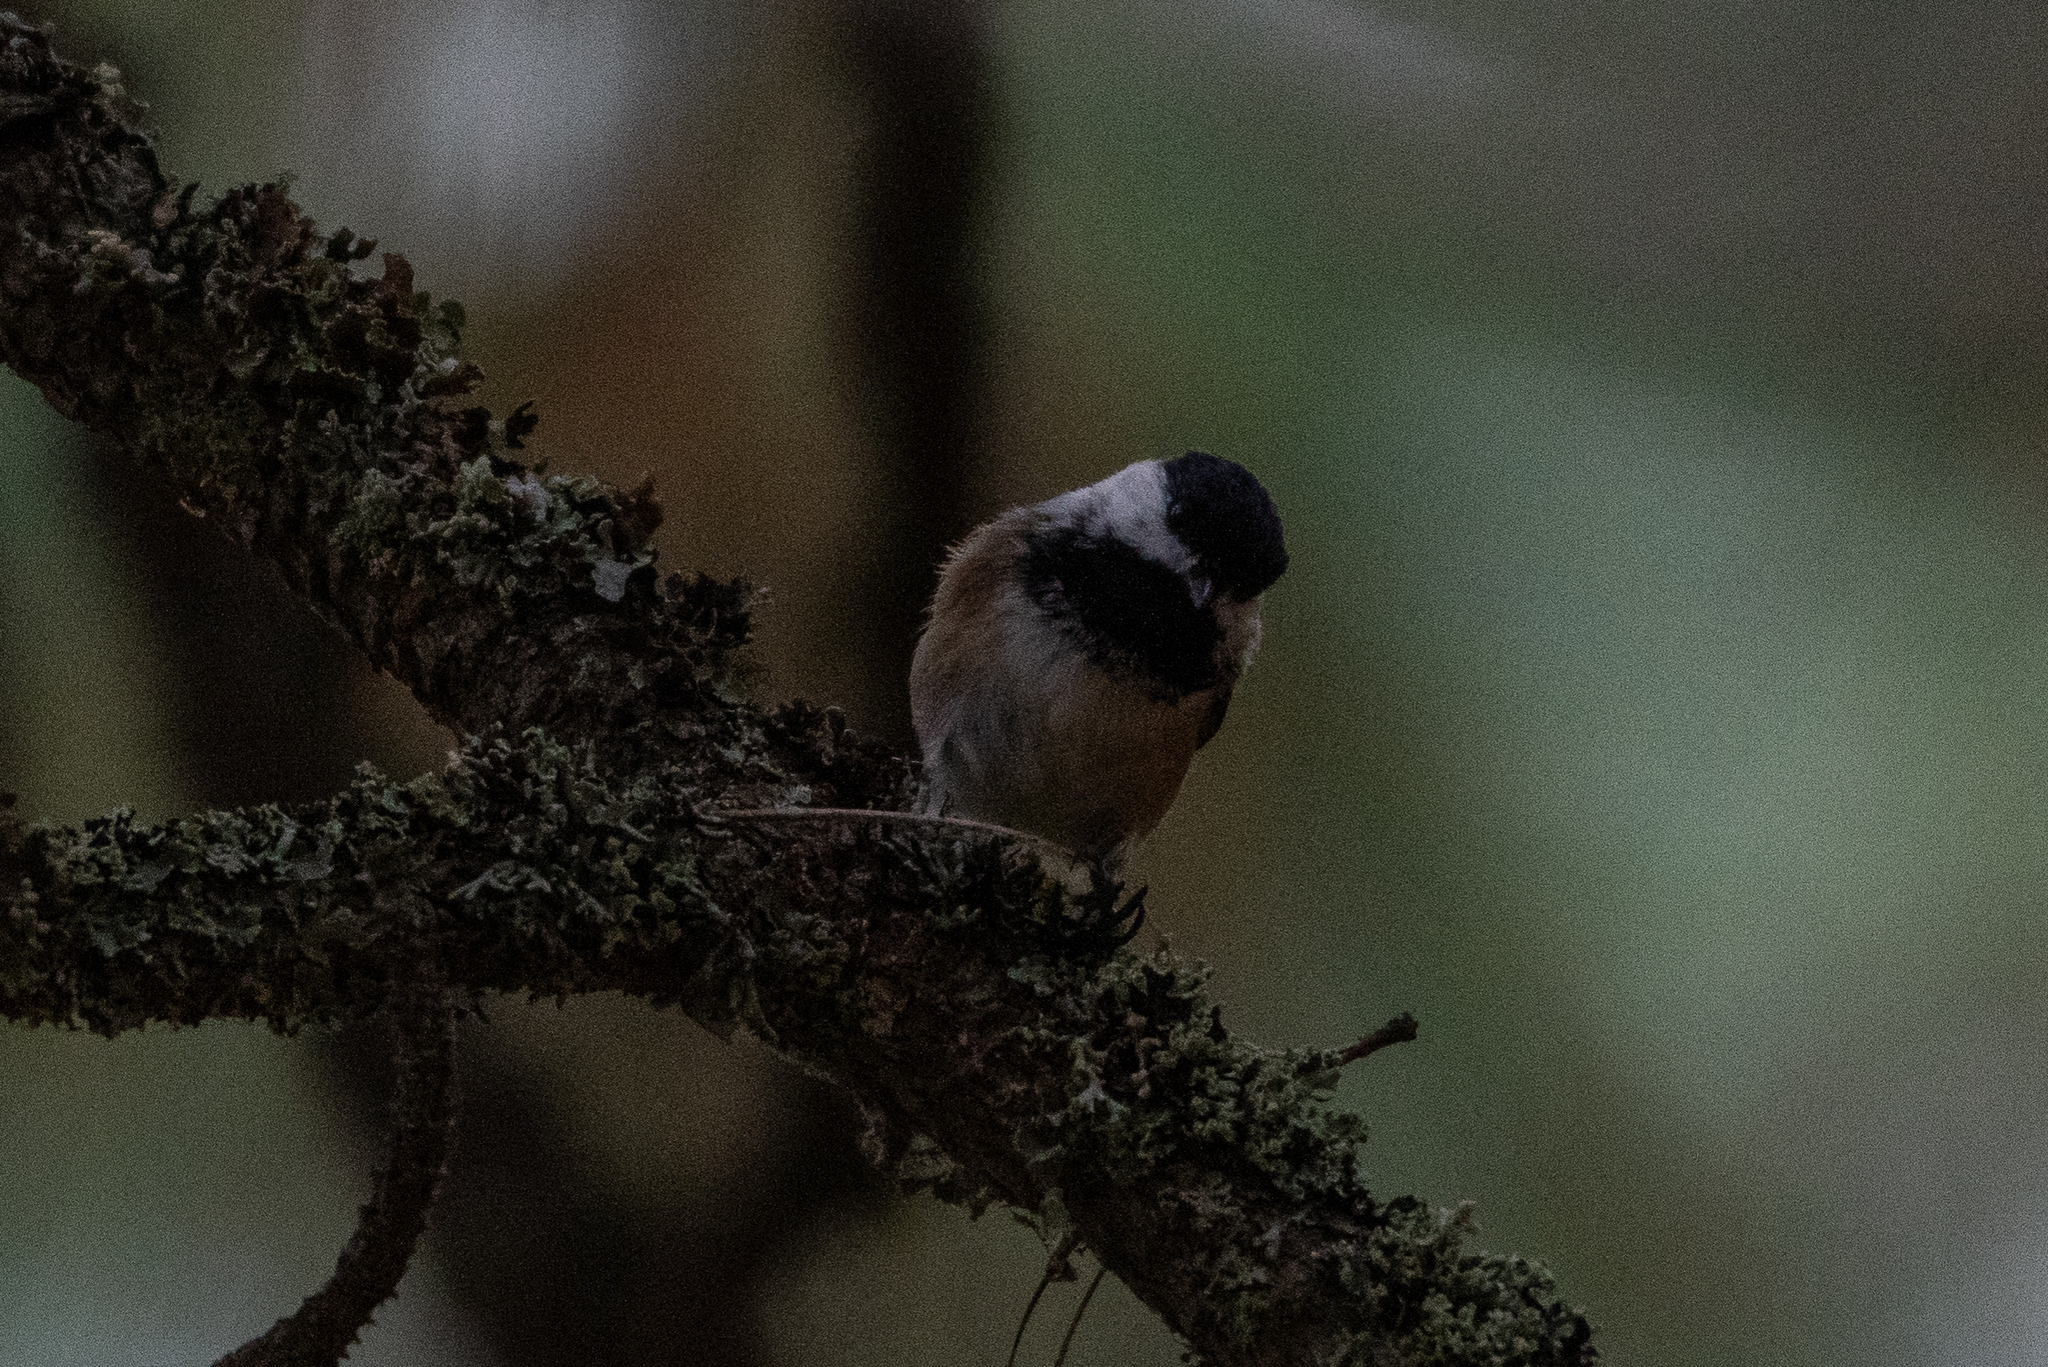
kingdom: Animalia
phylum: Chordata
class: Aves
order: Passeriformes
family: Paridae
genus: Poecile
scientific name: Poecile atricapillus
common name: Black-capped chickadee
